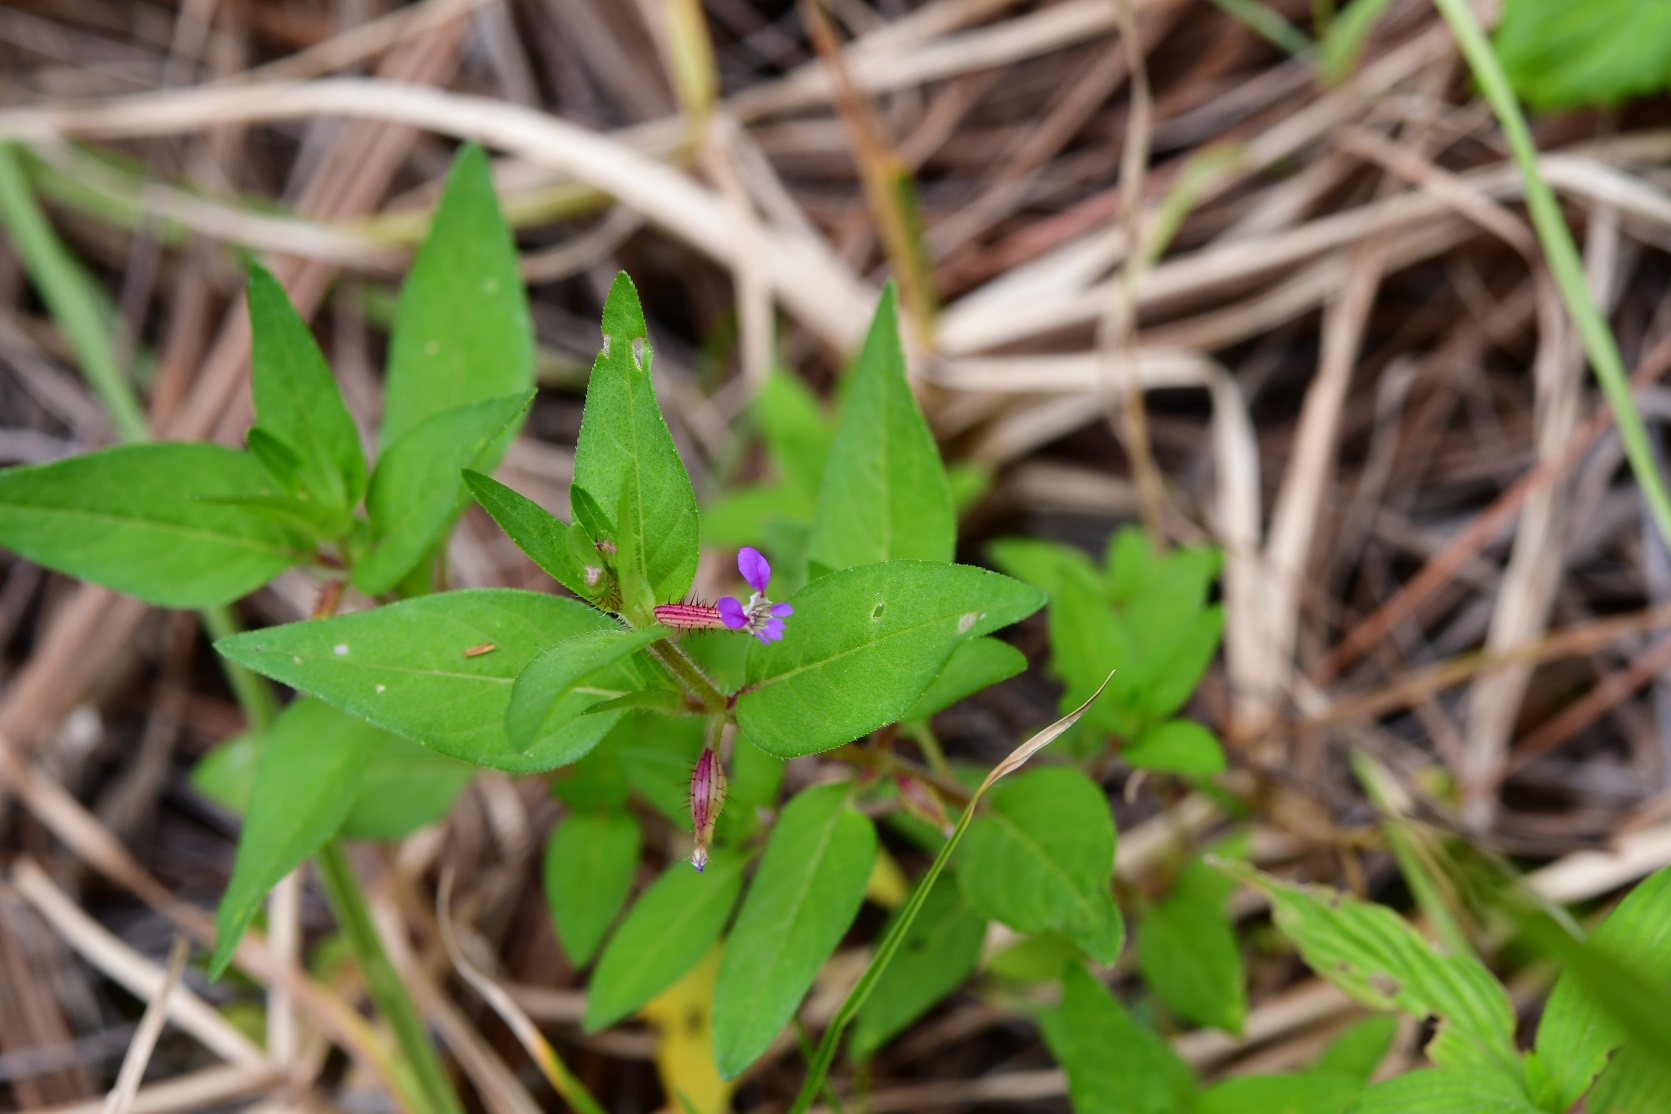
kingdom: Plantae
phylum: Tracheophyta
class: Magnoliopsida
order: Myrtales
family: Lythraceae
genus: Cuphea
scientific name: Cuphea wrightii
